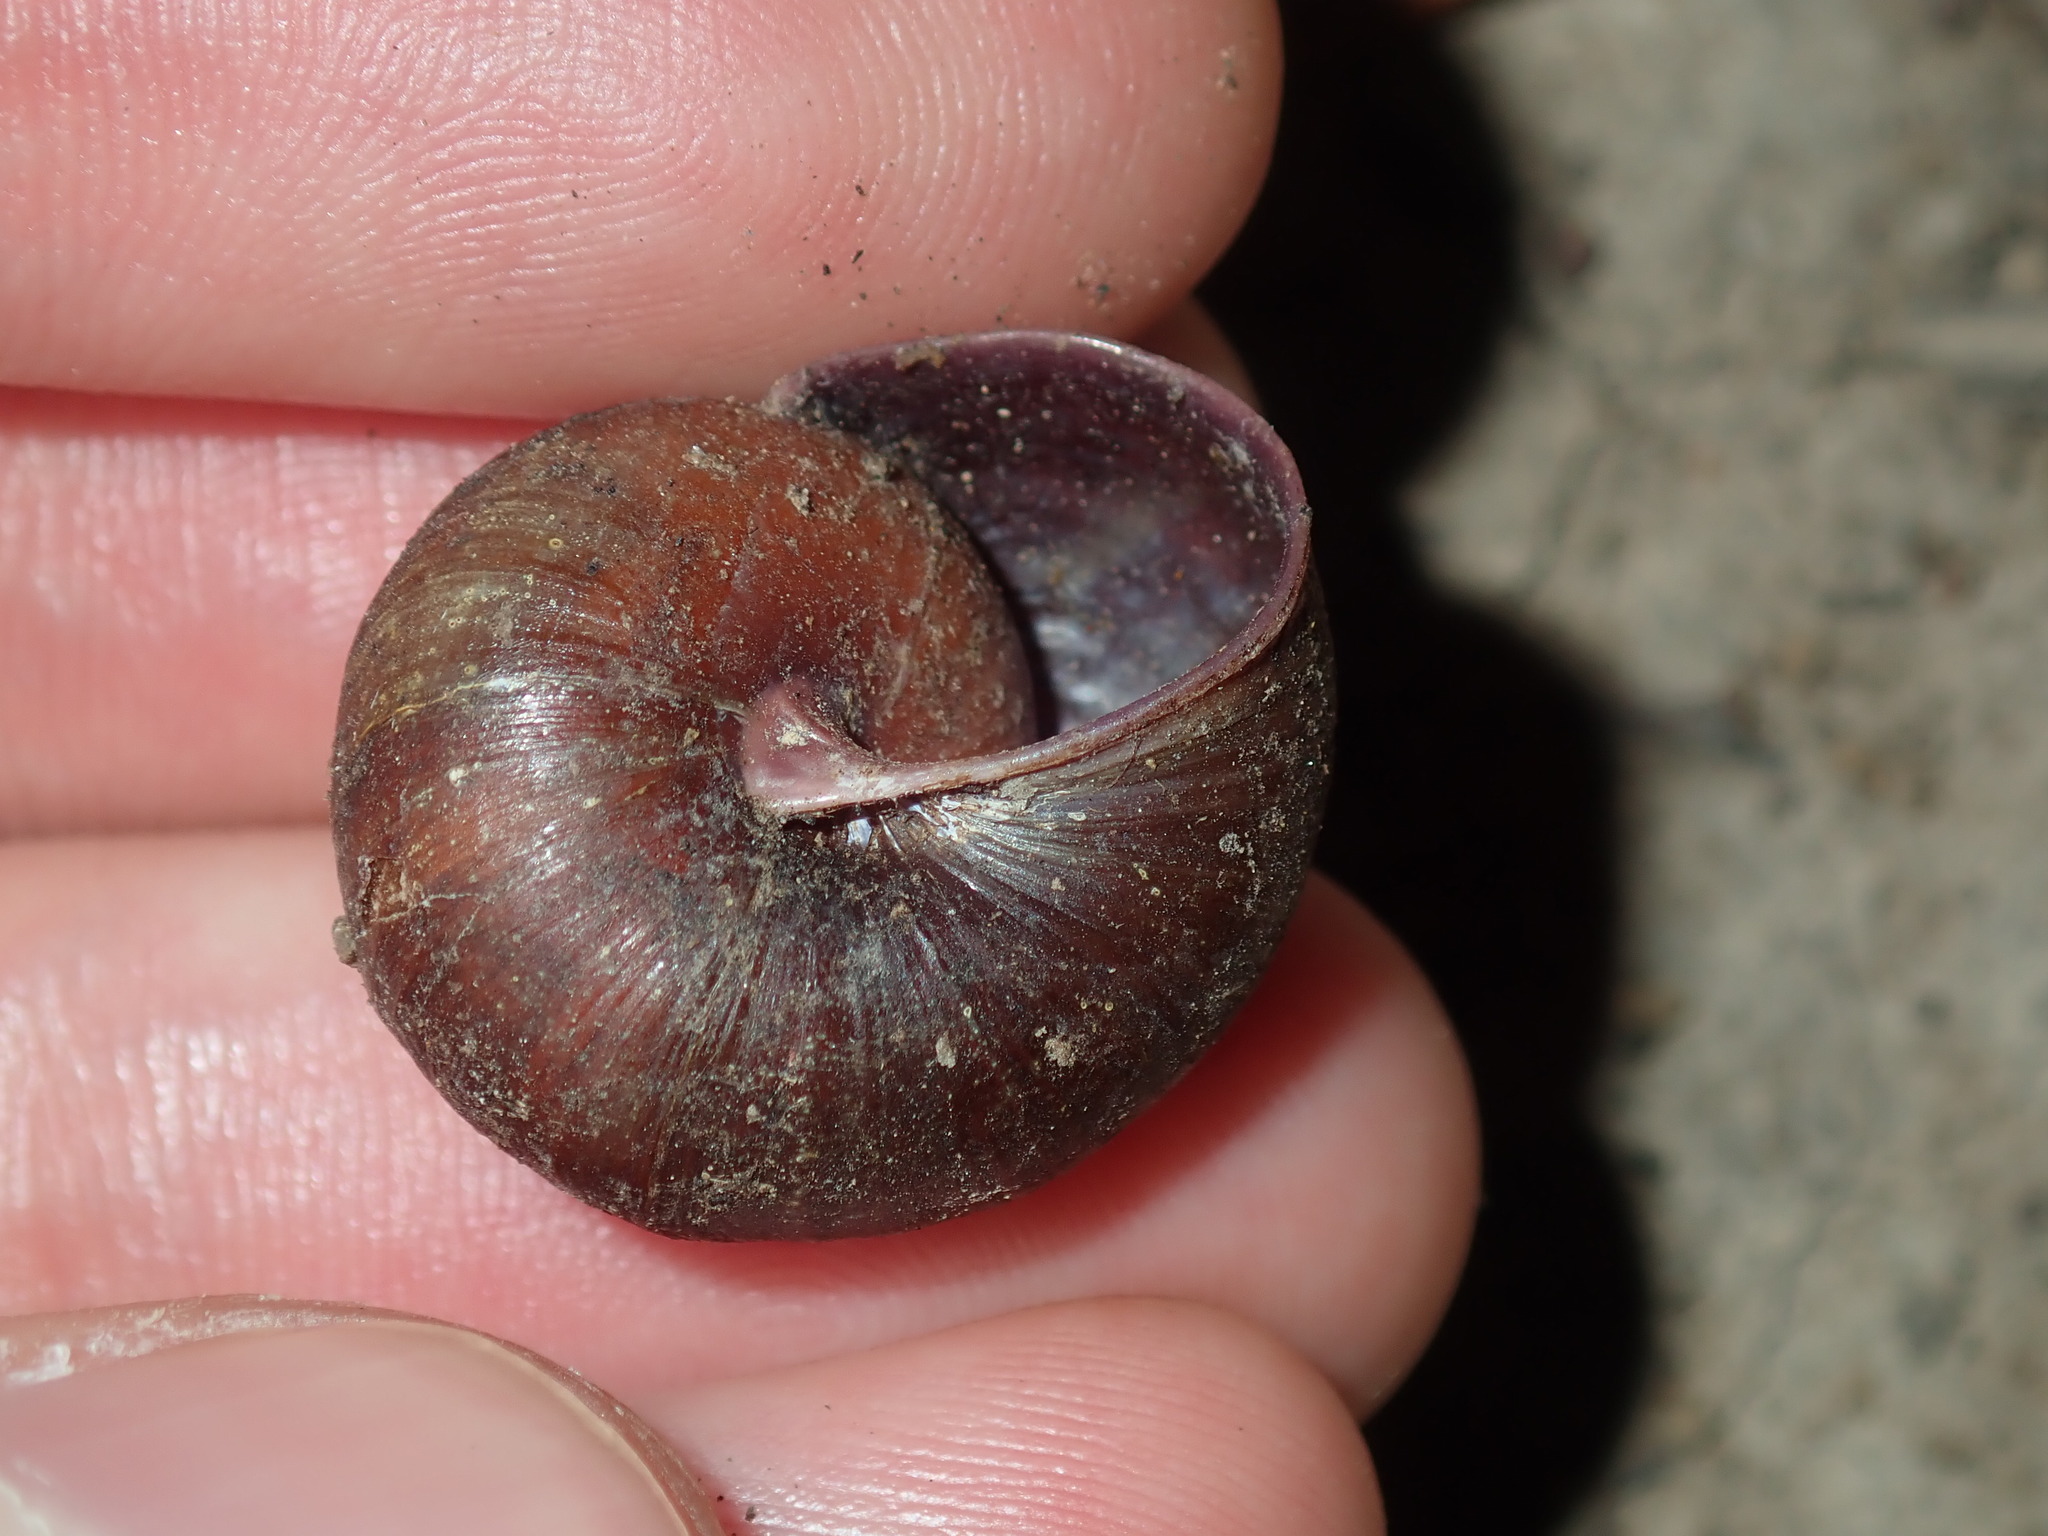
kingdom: Animalia
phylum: Mollusca
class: Gastropoda
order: Stylommatophora
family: Camaenidae
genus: Sauroconcha
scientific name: Sauroconcha sheai
